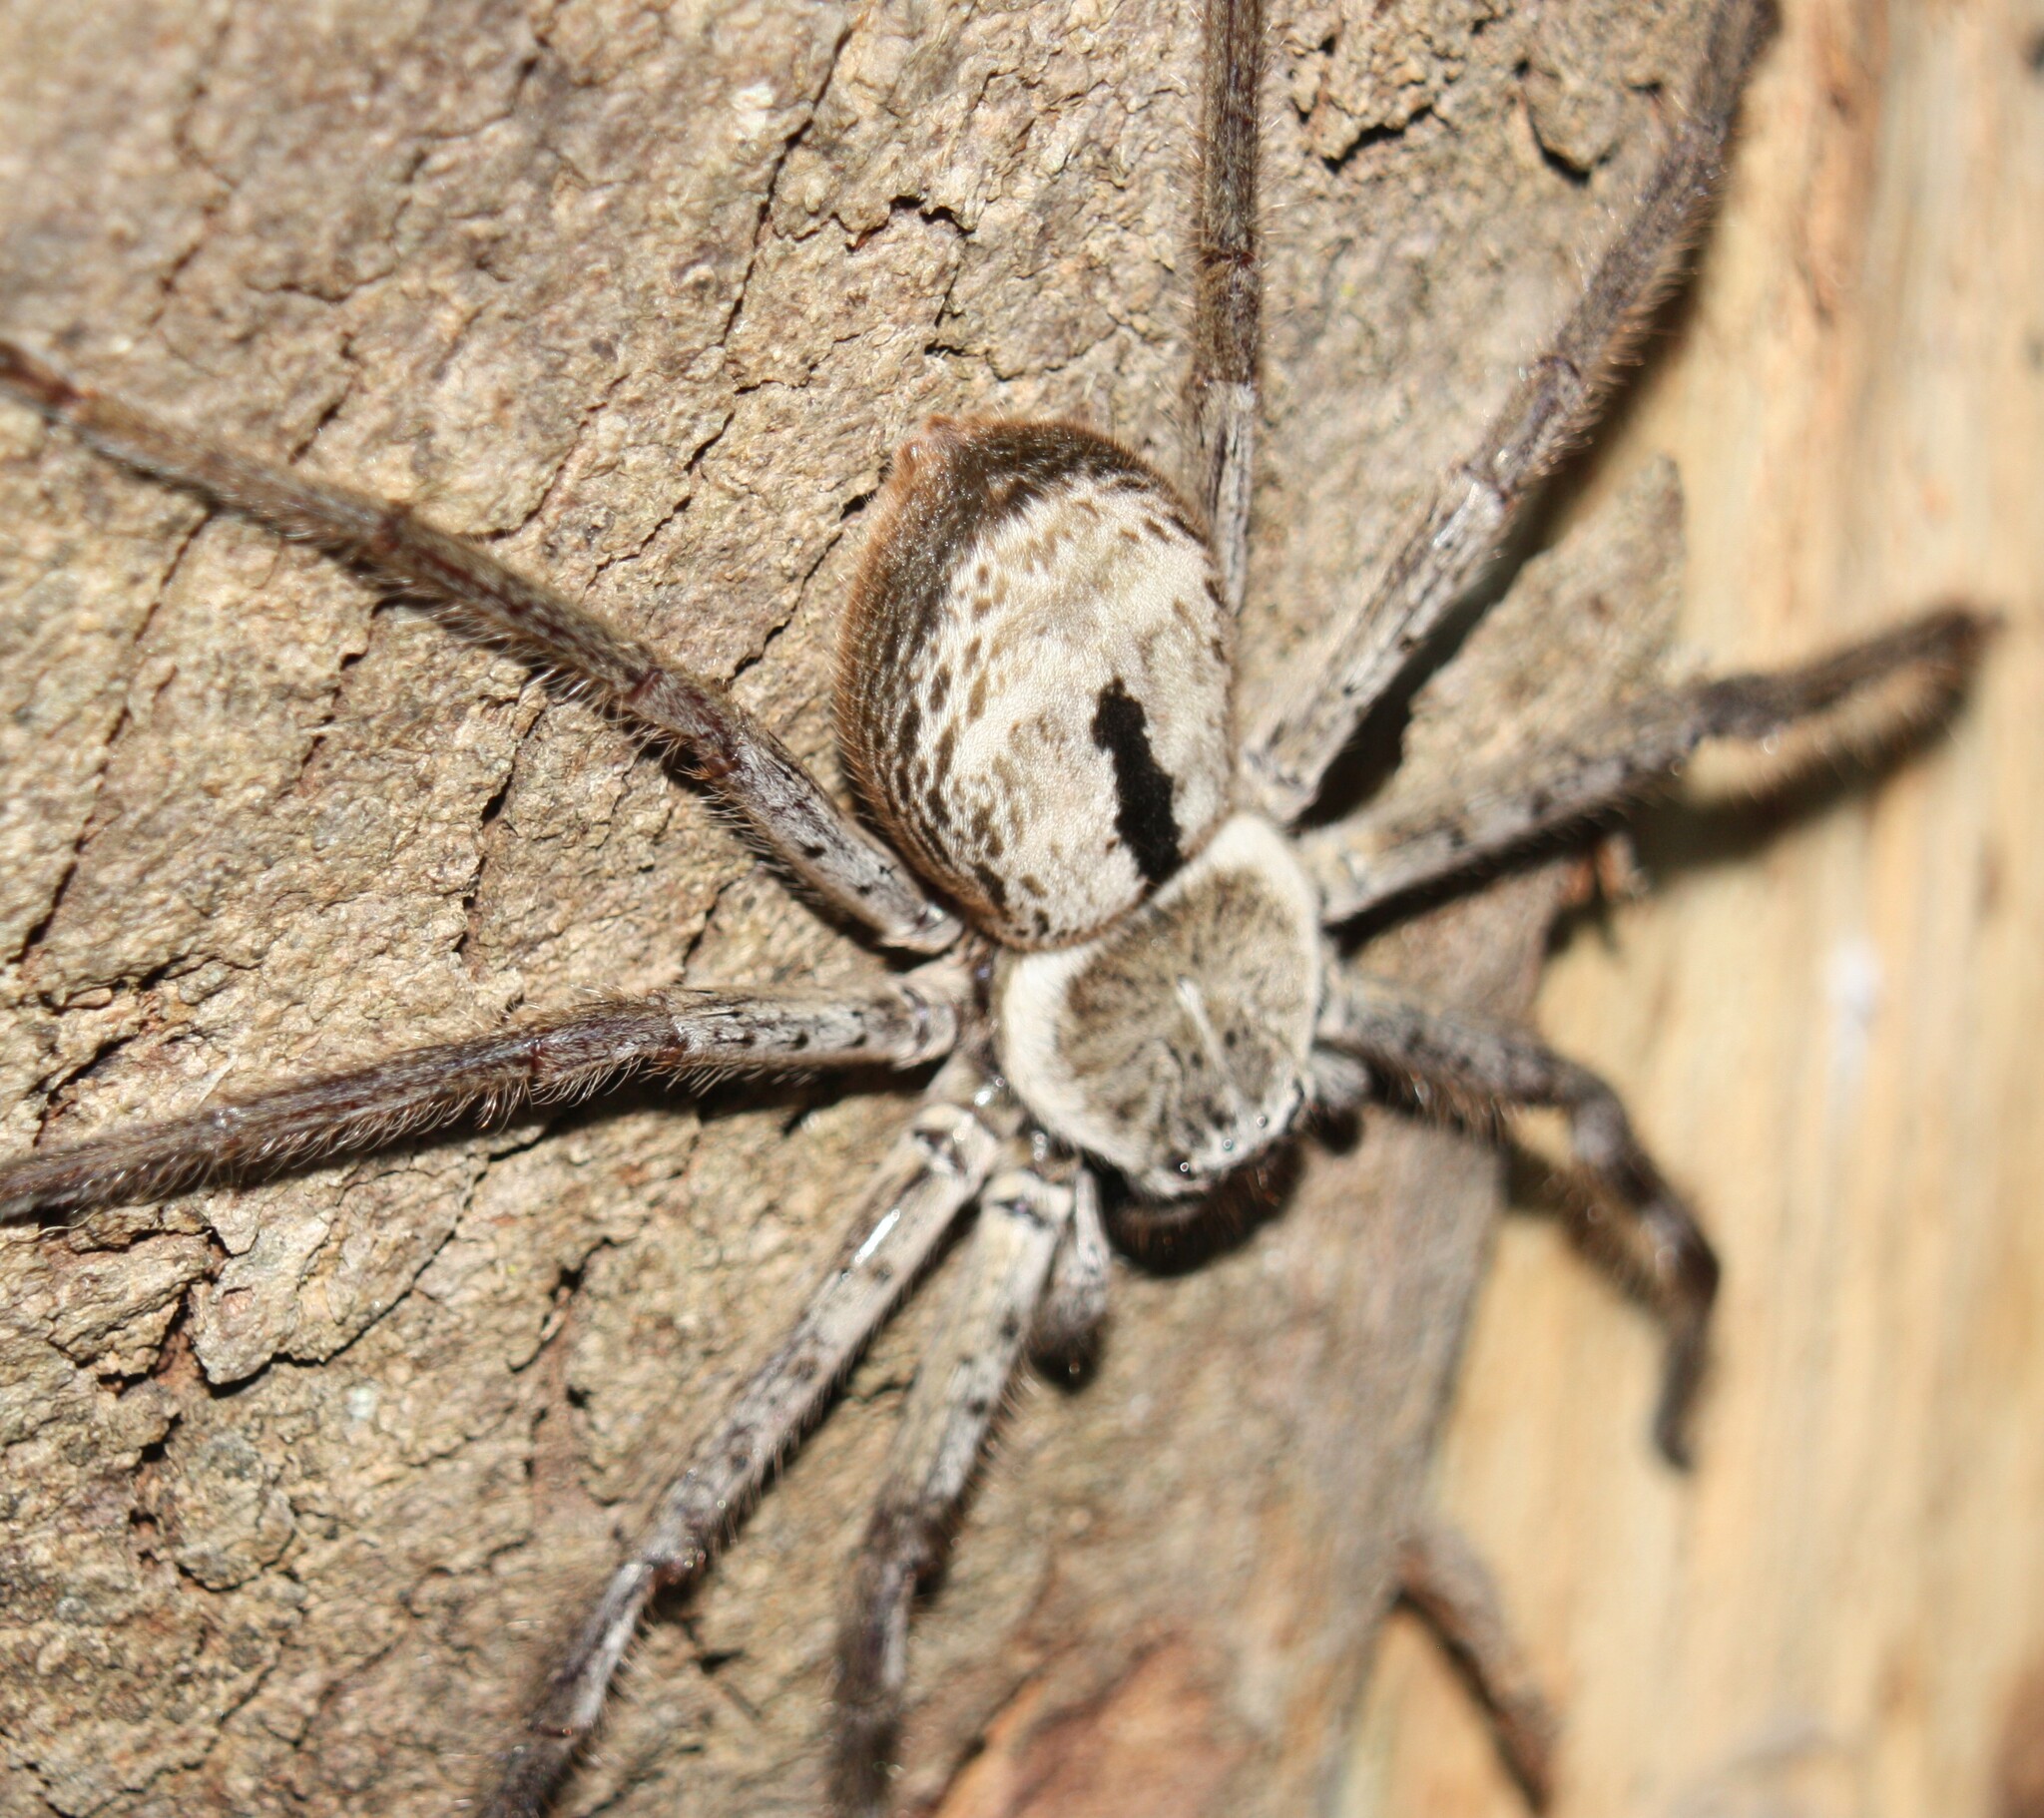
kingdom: Animalia
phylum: Arthropoda
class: Arachnida
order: Araneae
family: Sparassidae
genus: Holconia
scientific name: Holconia immanis
